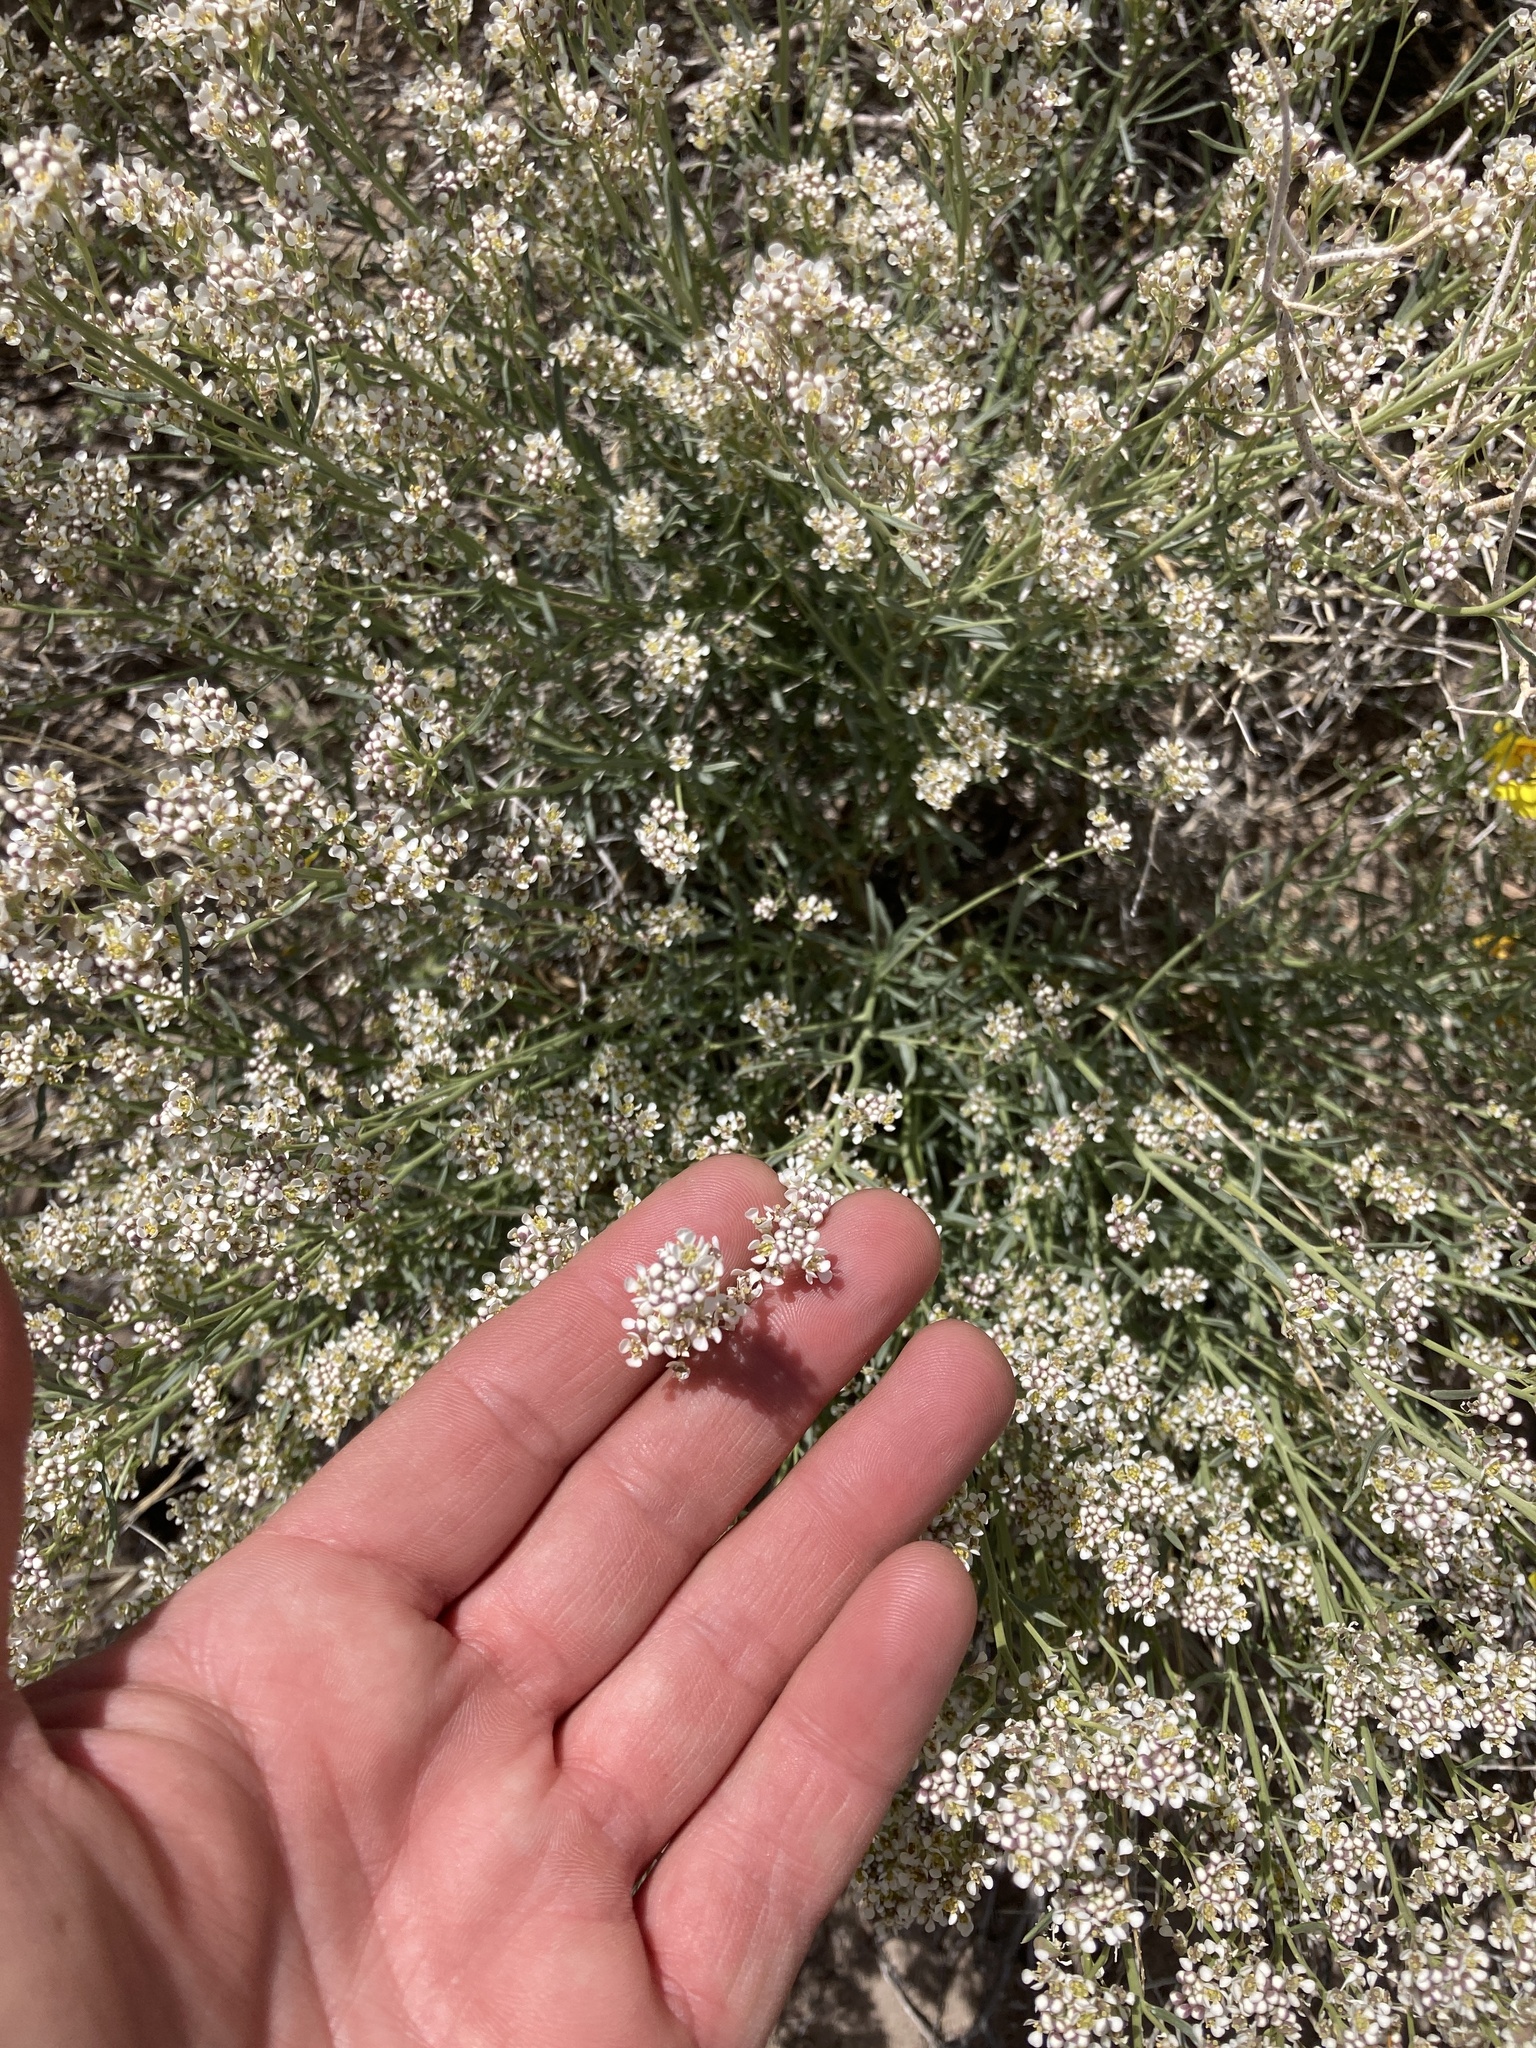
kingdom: Plantae
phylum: Tracheophyta
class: Magnoliopsida
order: Brassicales
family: Brassicaceae
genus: Lepidium
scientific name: Lepidium fremontii
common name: Fremont's pepperwort
